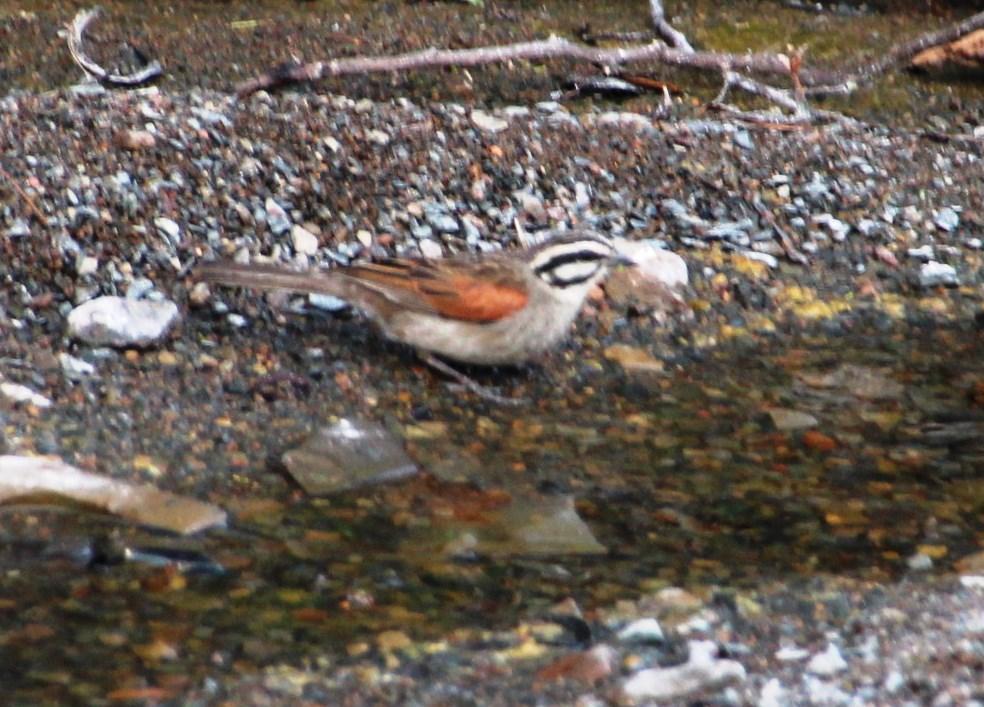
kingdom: Animalia
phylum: Chordata
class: Aves
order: Passeriformes
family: Emberizidae
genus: Emberiza
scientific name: Emberiza capensis
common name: Cape bunting
